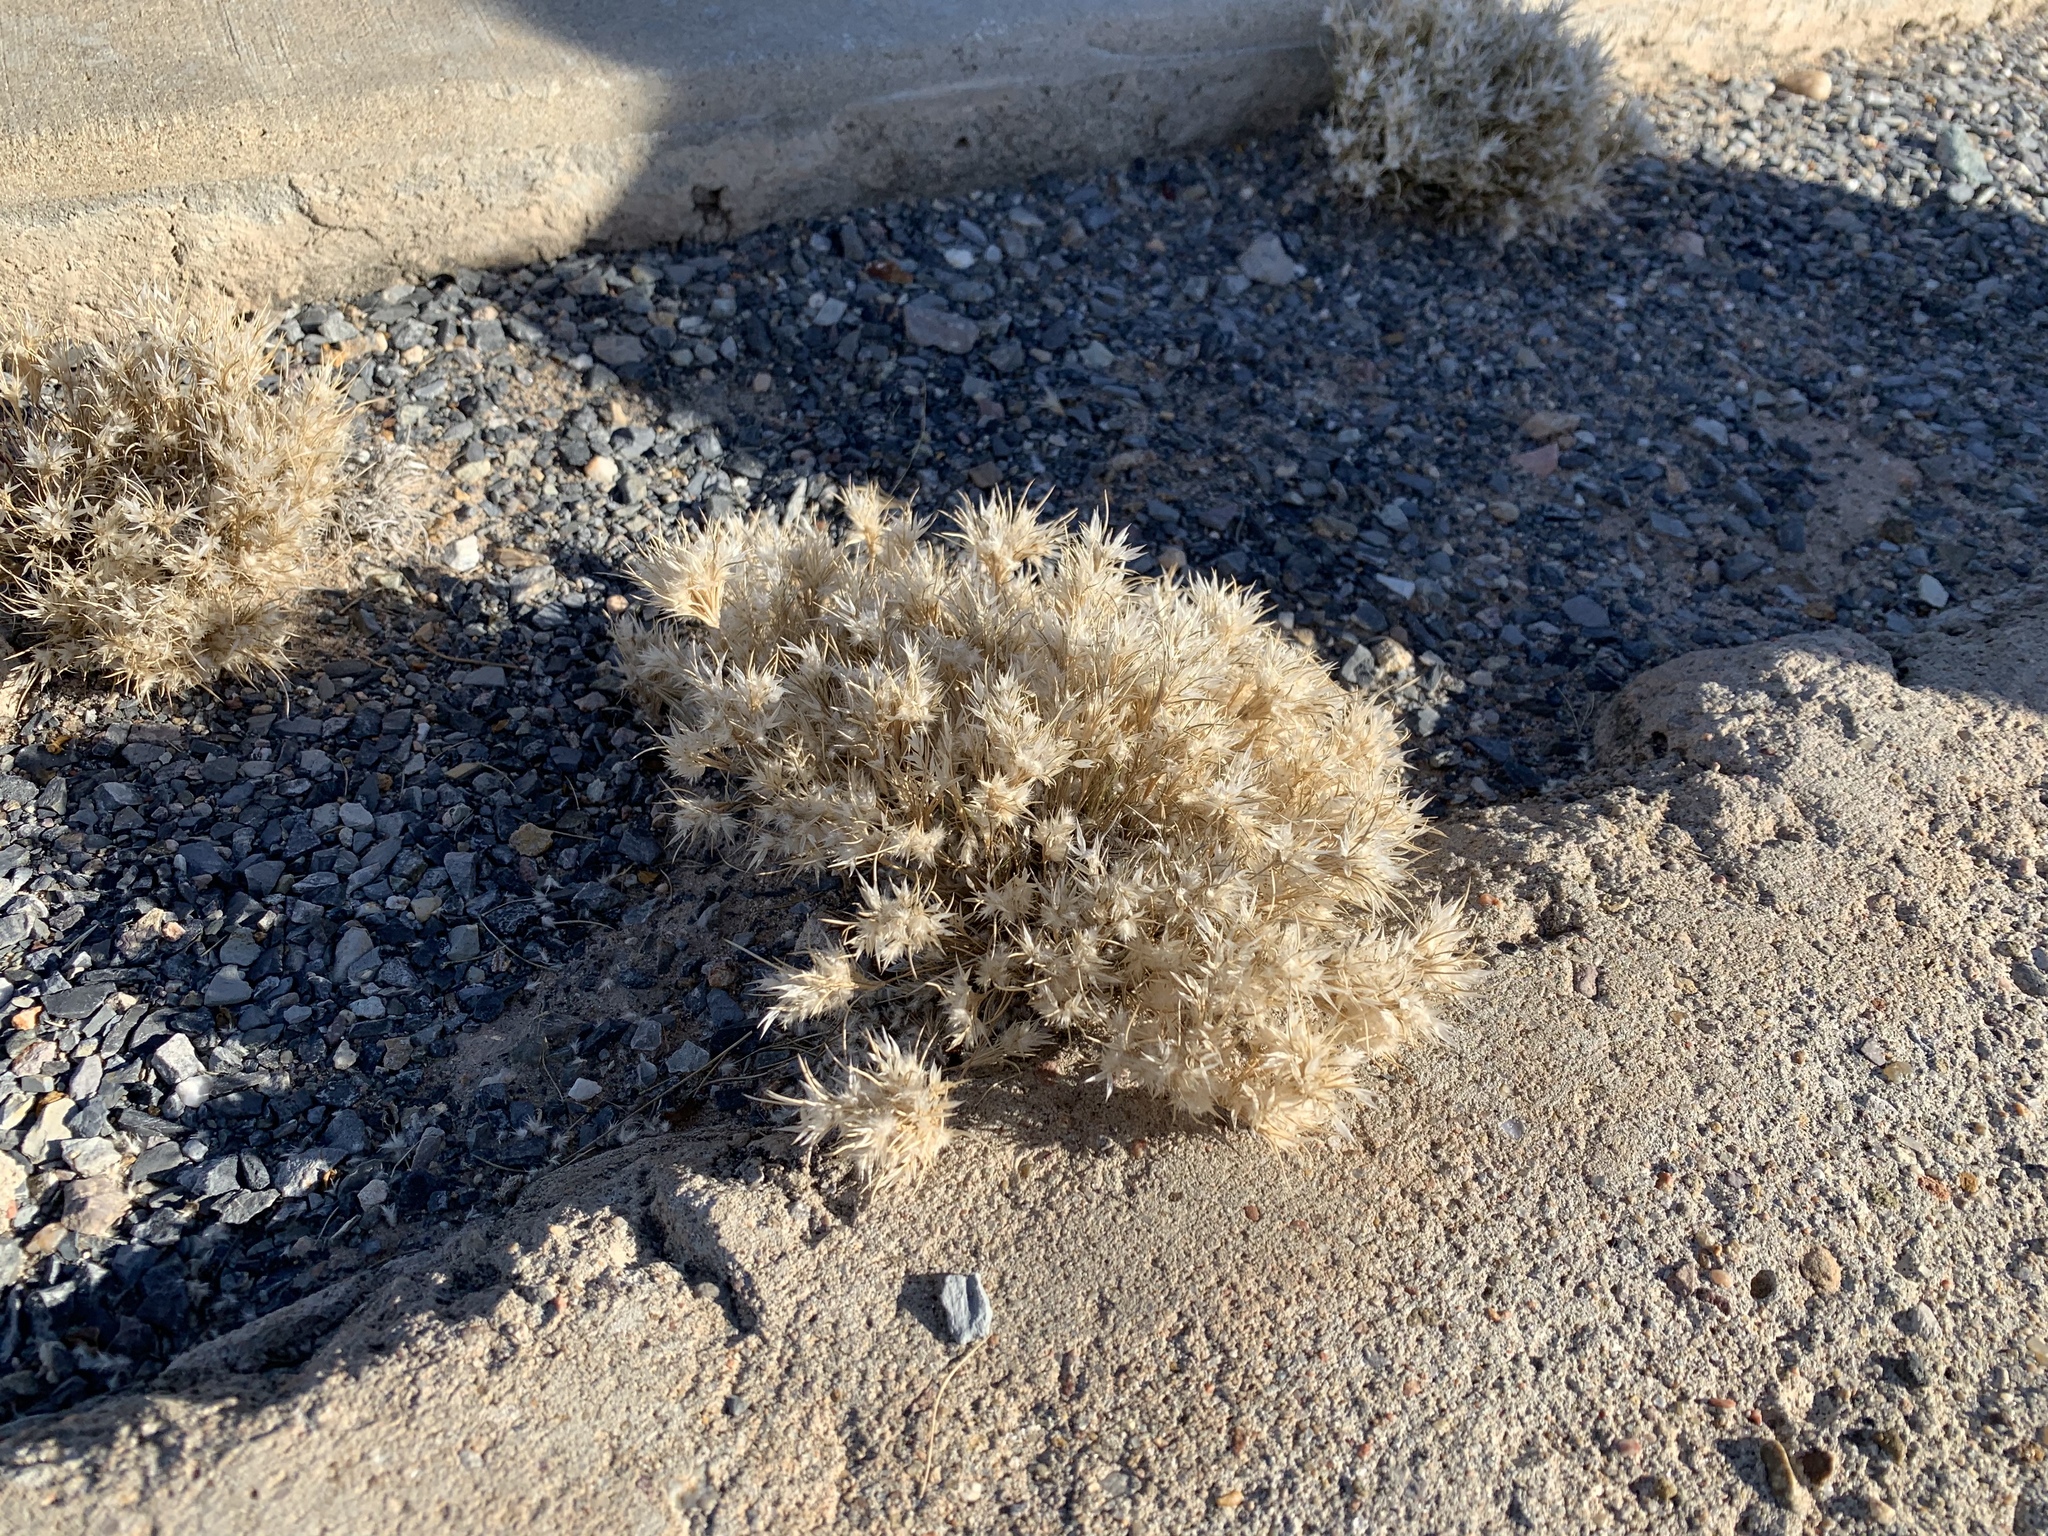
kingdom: Plantae
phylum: Tracheophyta
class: Liliopsida
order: Poales
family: Poaceae
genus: Dasyochloa
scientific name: Dasyochloa pulchella
